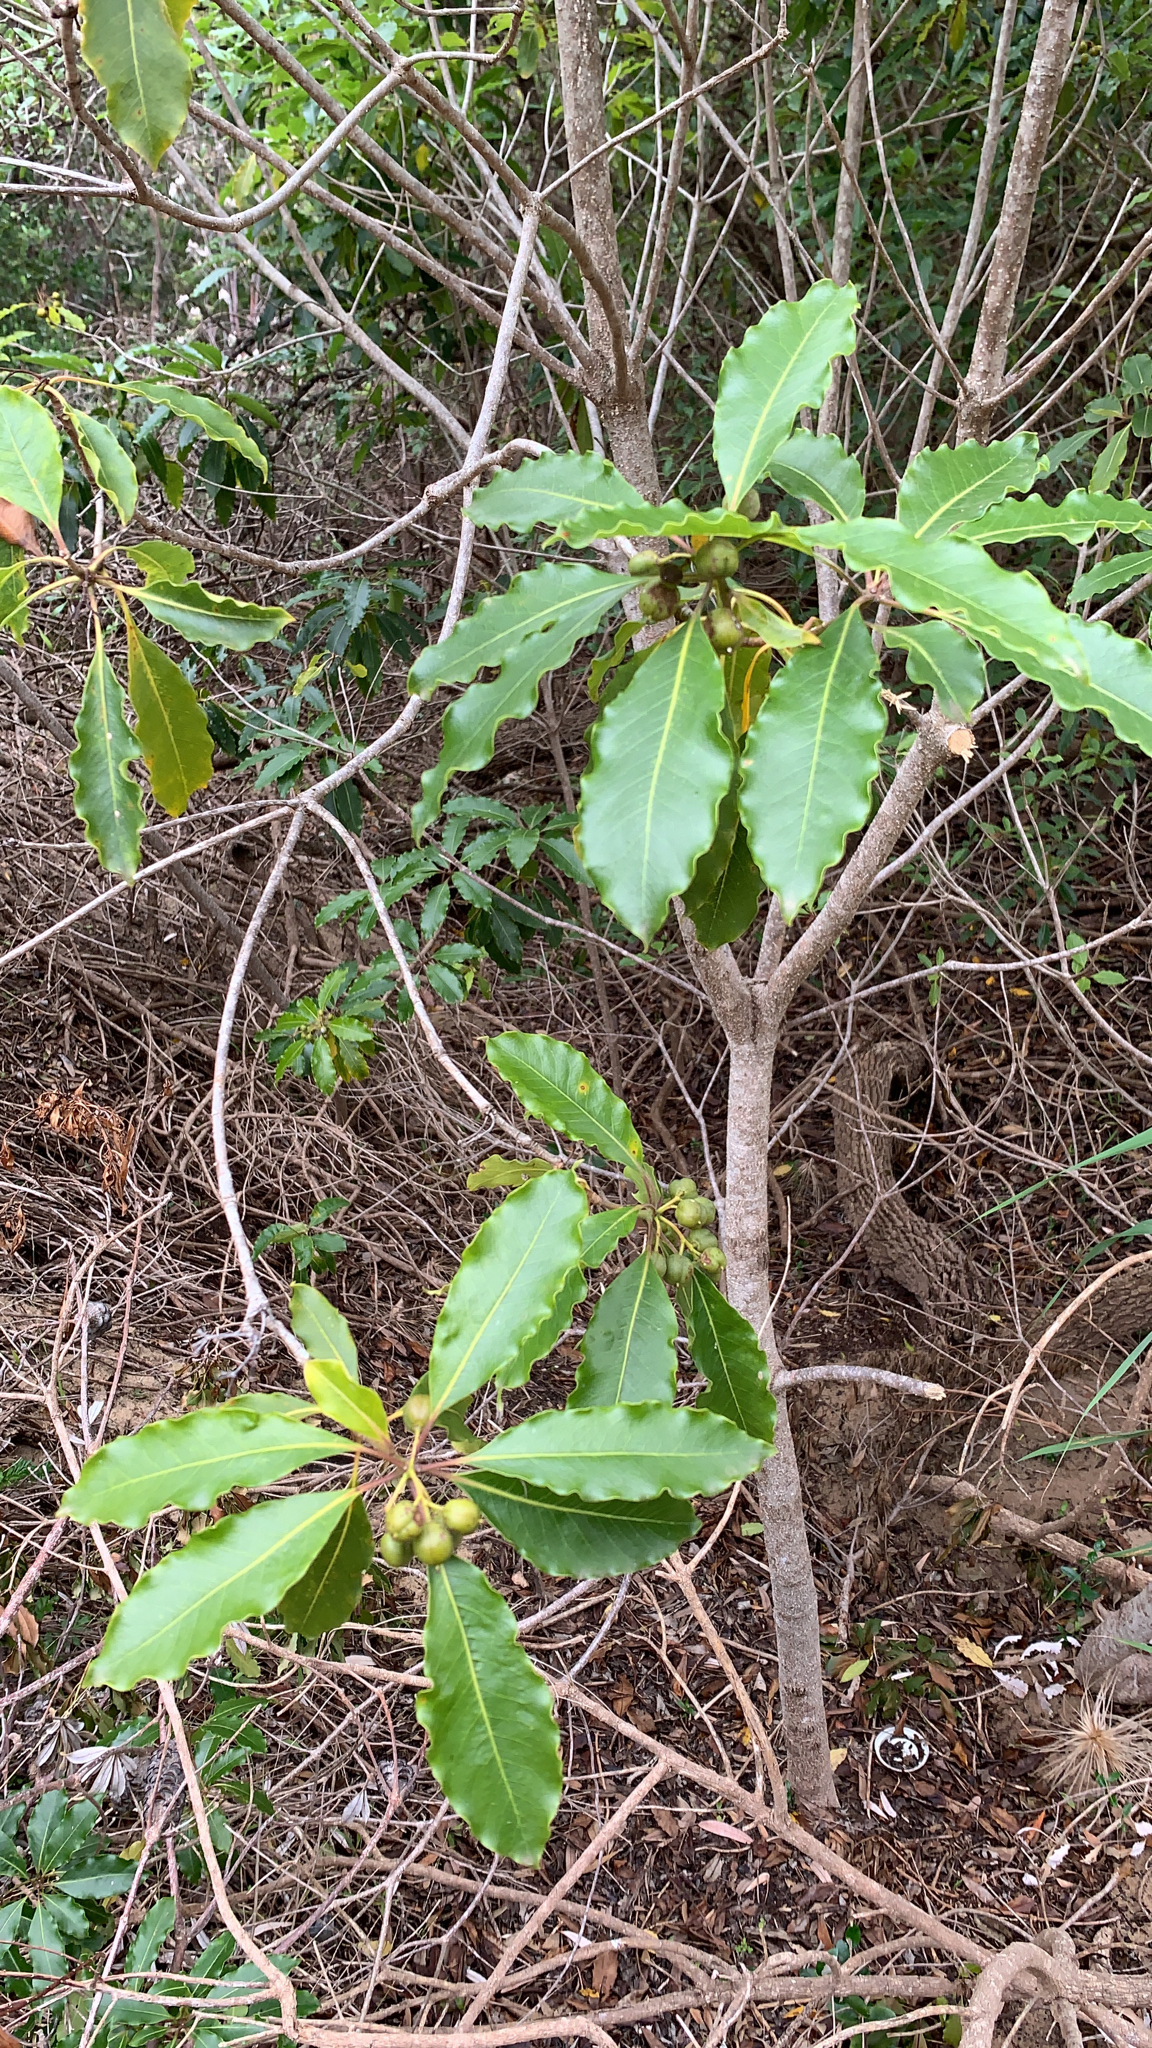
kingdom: Plantae
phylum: Tracheophyta
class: Magnoliopsida
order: Apiales
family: Pittosporaceae
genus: Pittosporum
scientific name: Pittosporum undulatum
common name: Australian cheesewood
